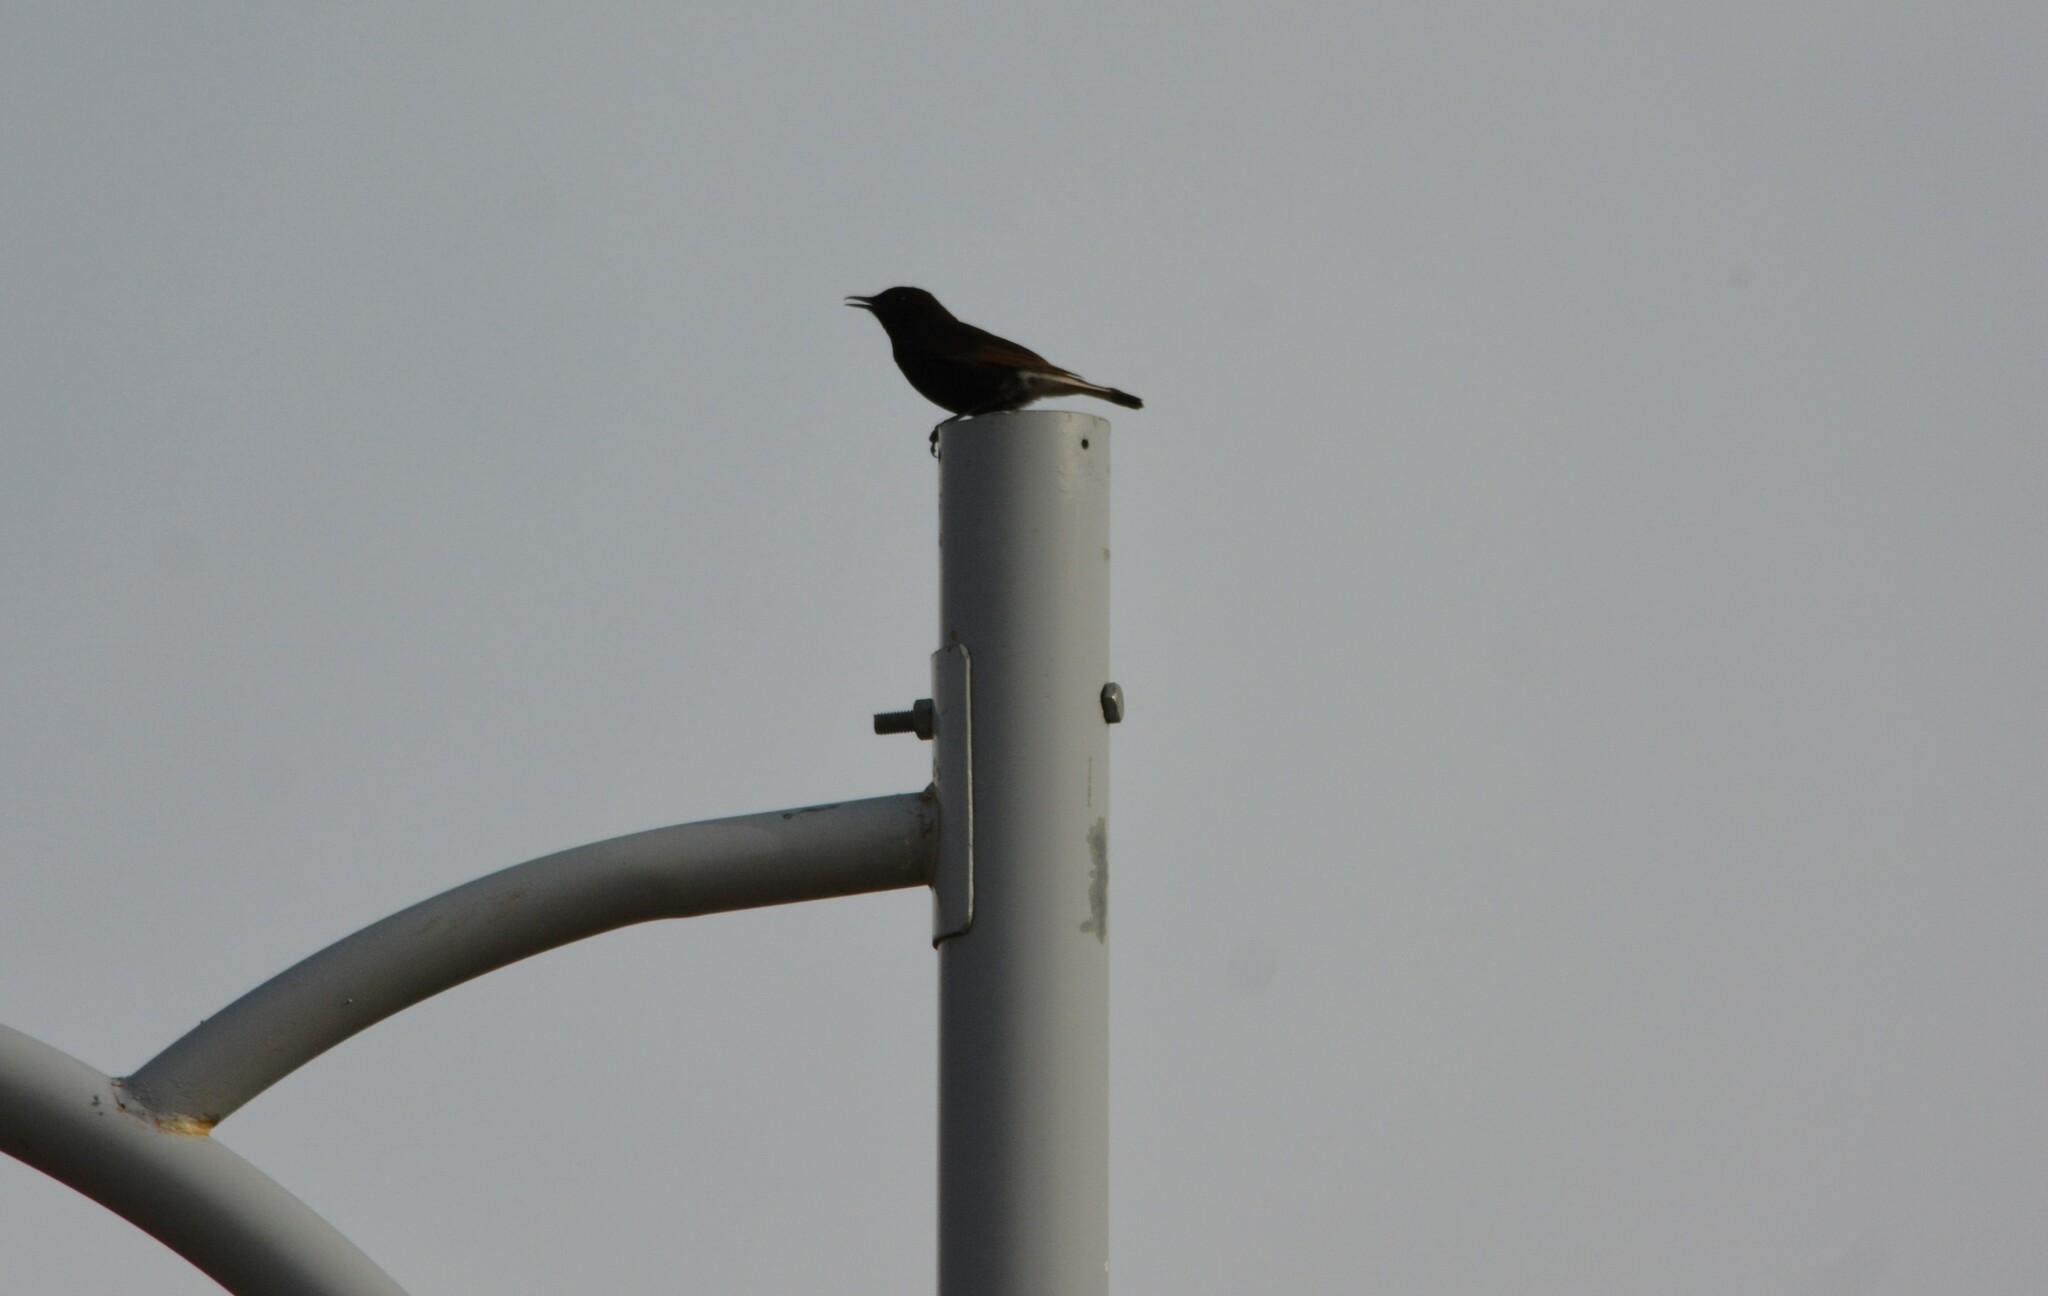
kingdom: Animalia
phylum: Chordata
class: Aves
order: Passeriformes
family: Muscicapidae
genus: Oenanthe
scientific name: Oenanthe leucura
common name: Black wheatear
